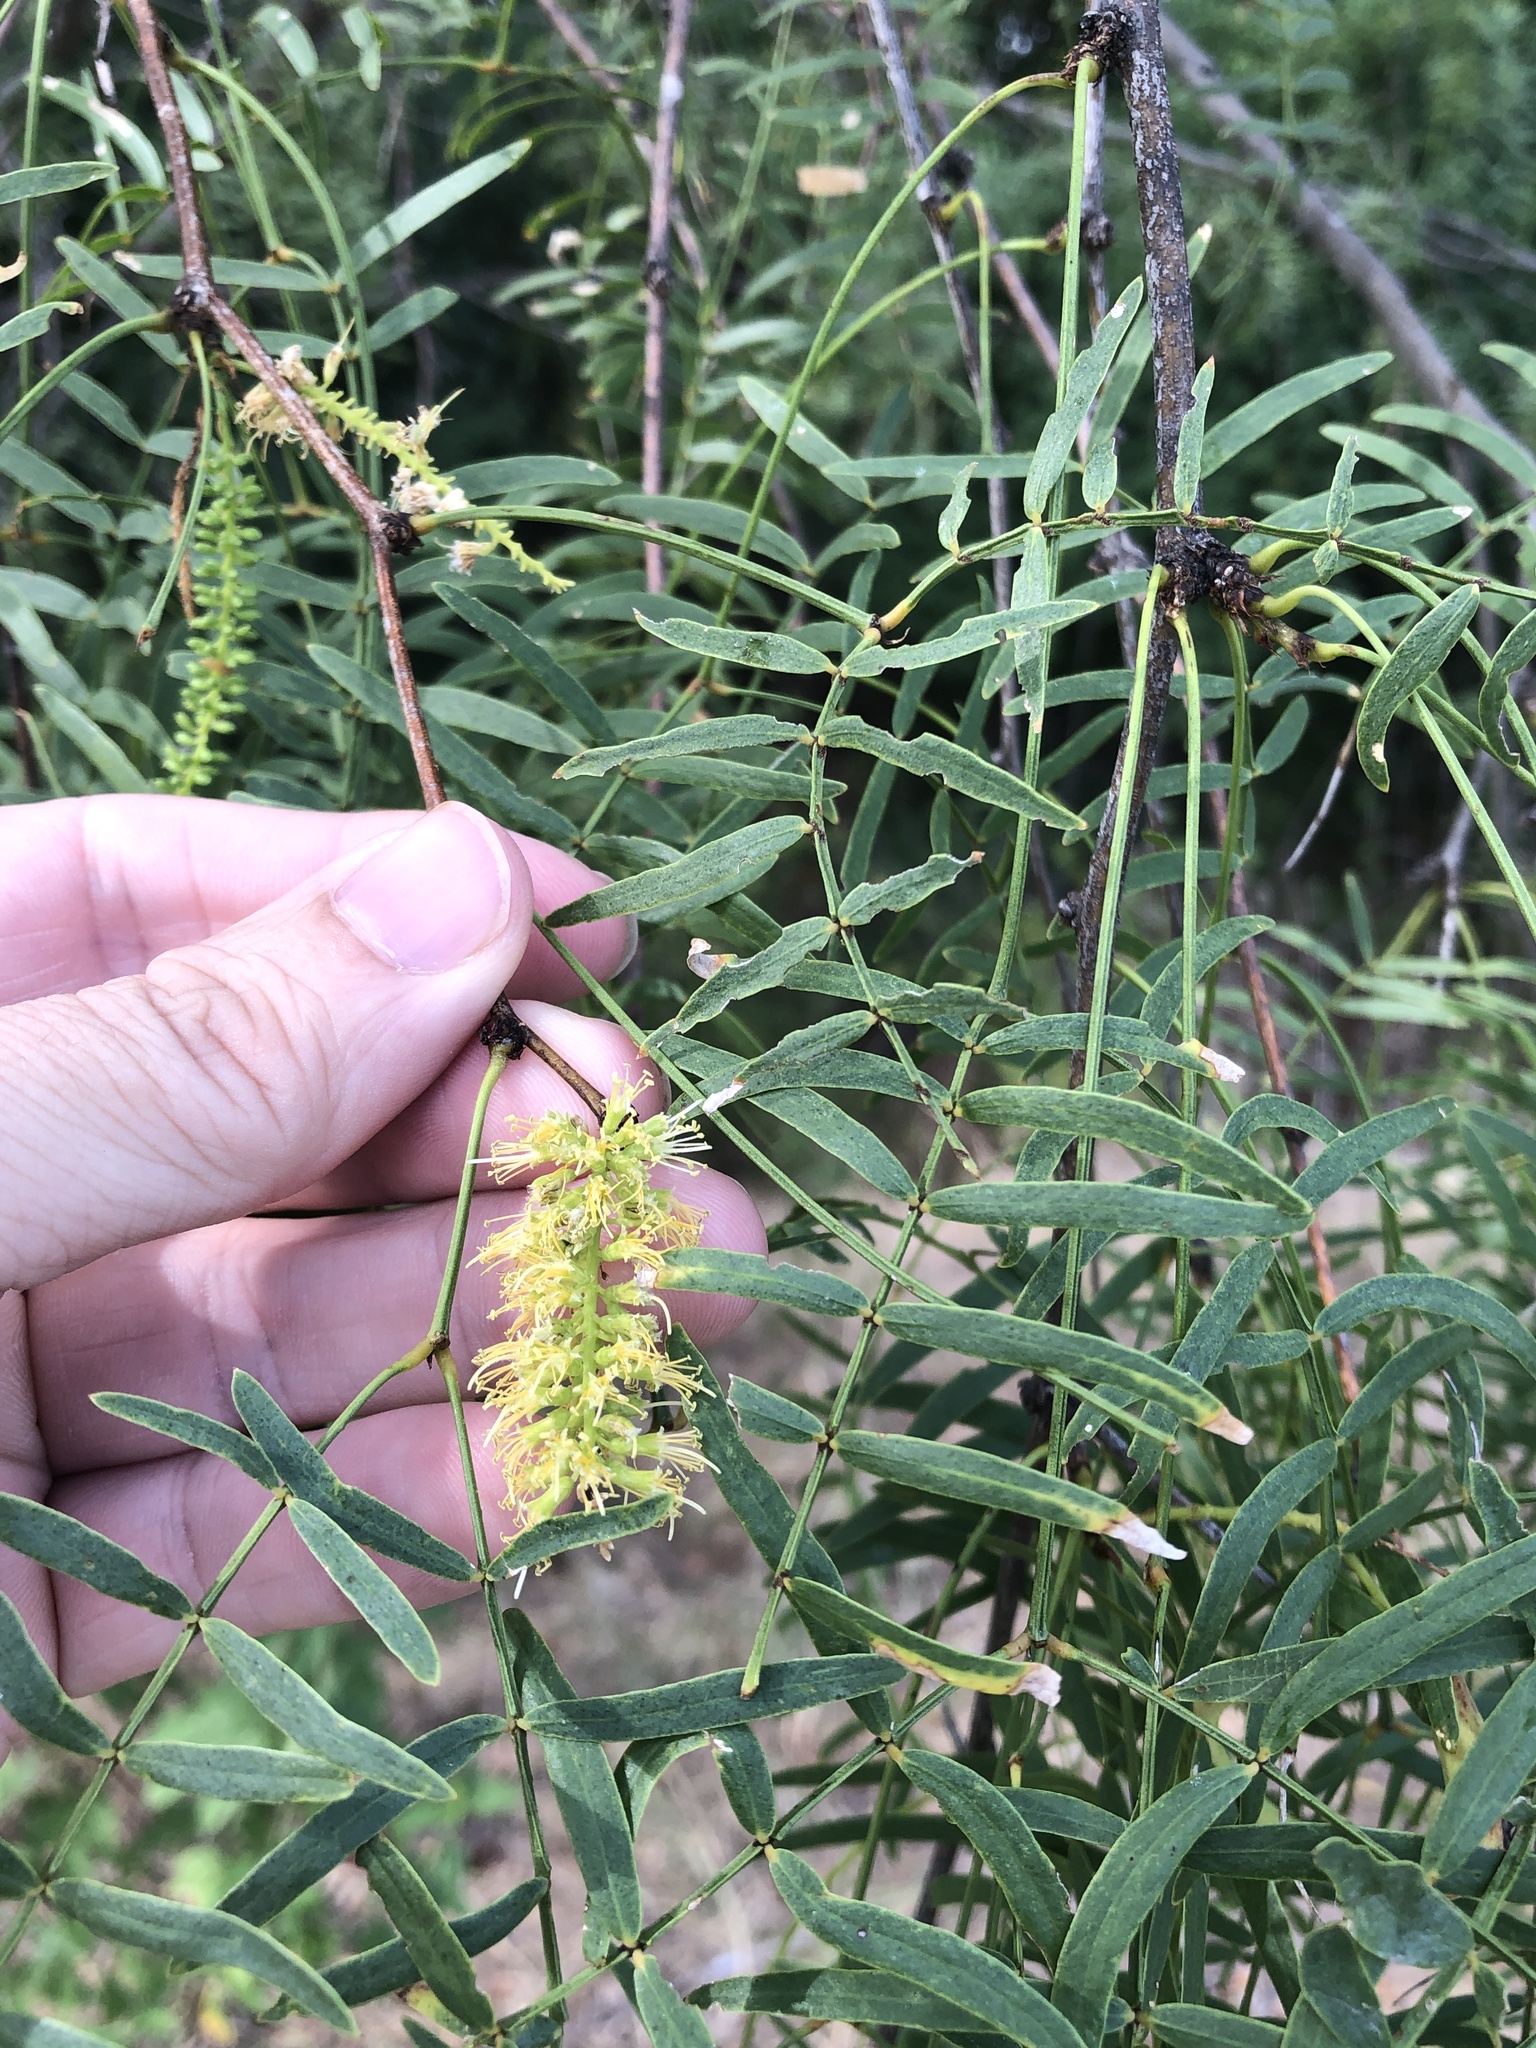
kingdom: Plantae
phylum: Tracheophyta
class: Magnoliopsida
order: Fabales
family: Fabaceae
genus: Prosopis
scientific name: Prosopis glandulosa
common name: Honey mesquite
